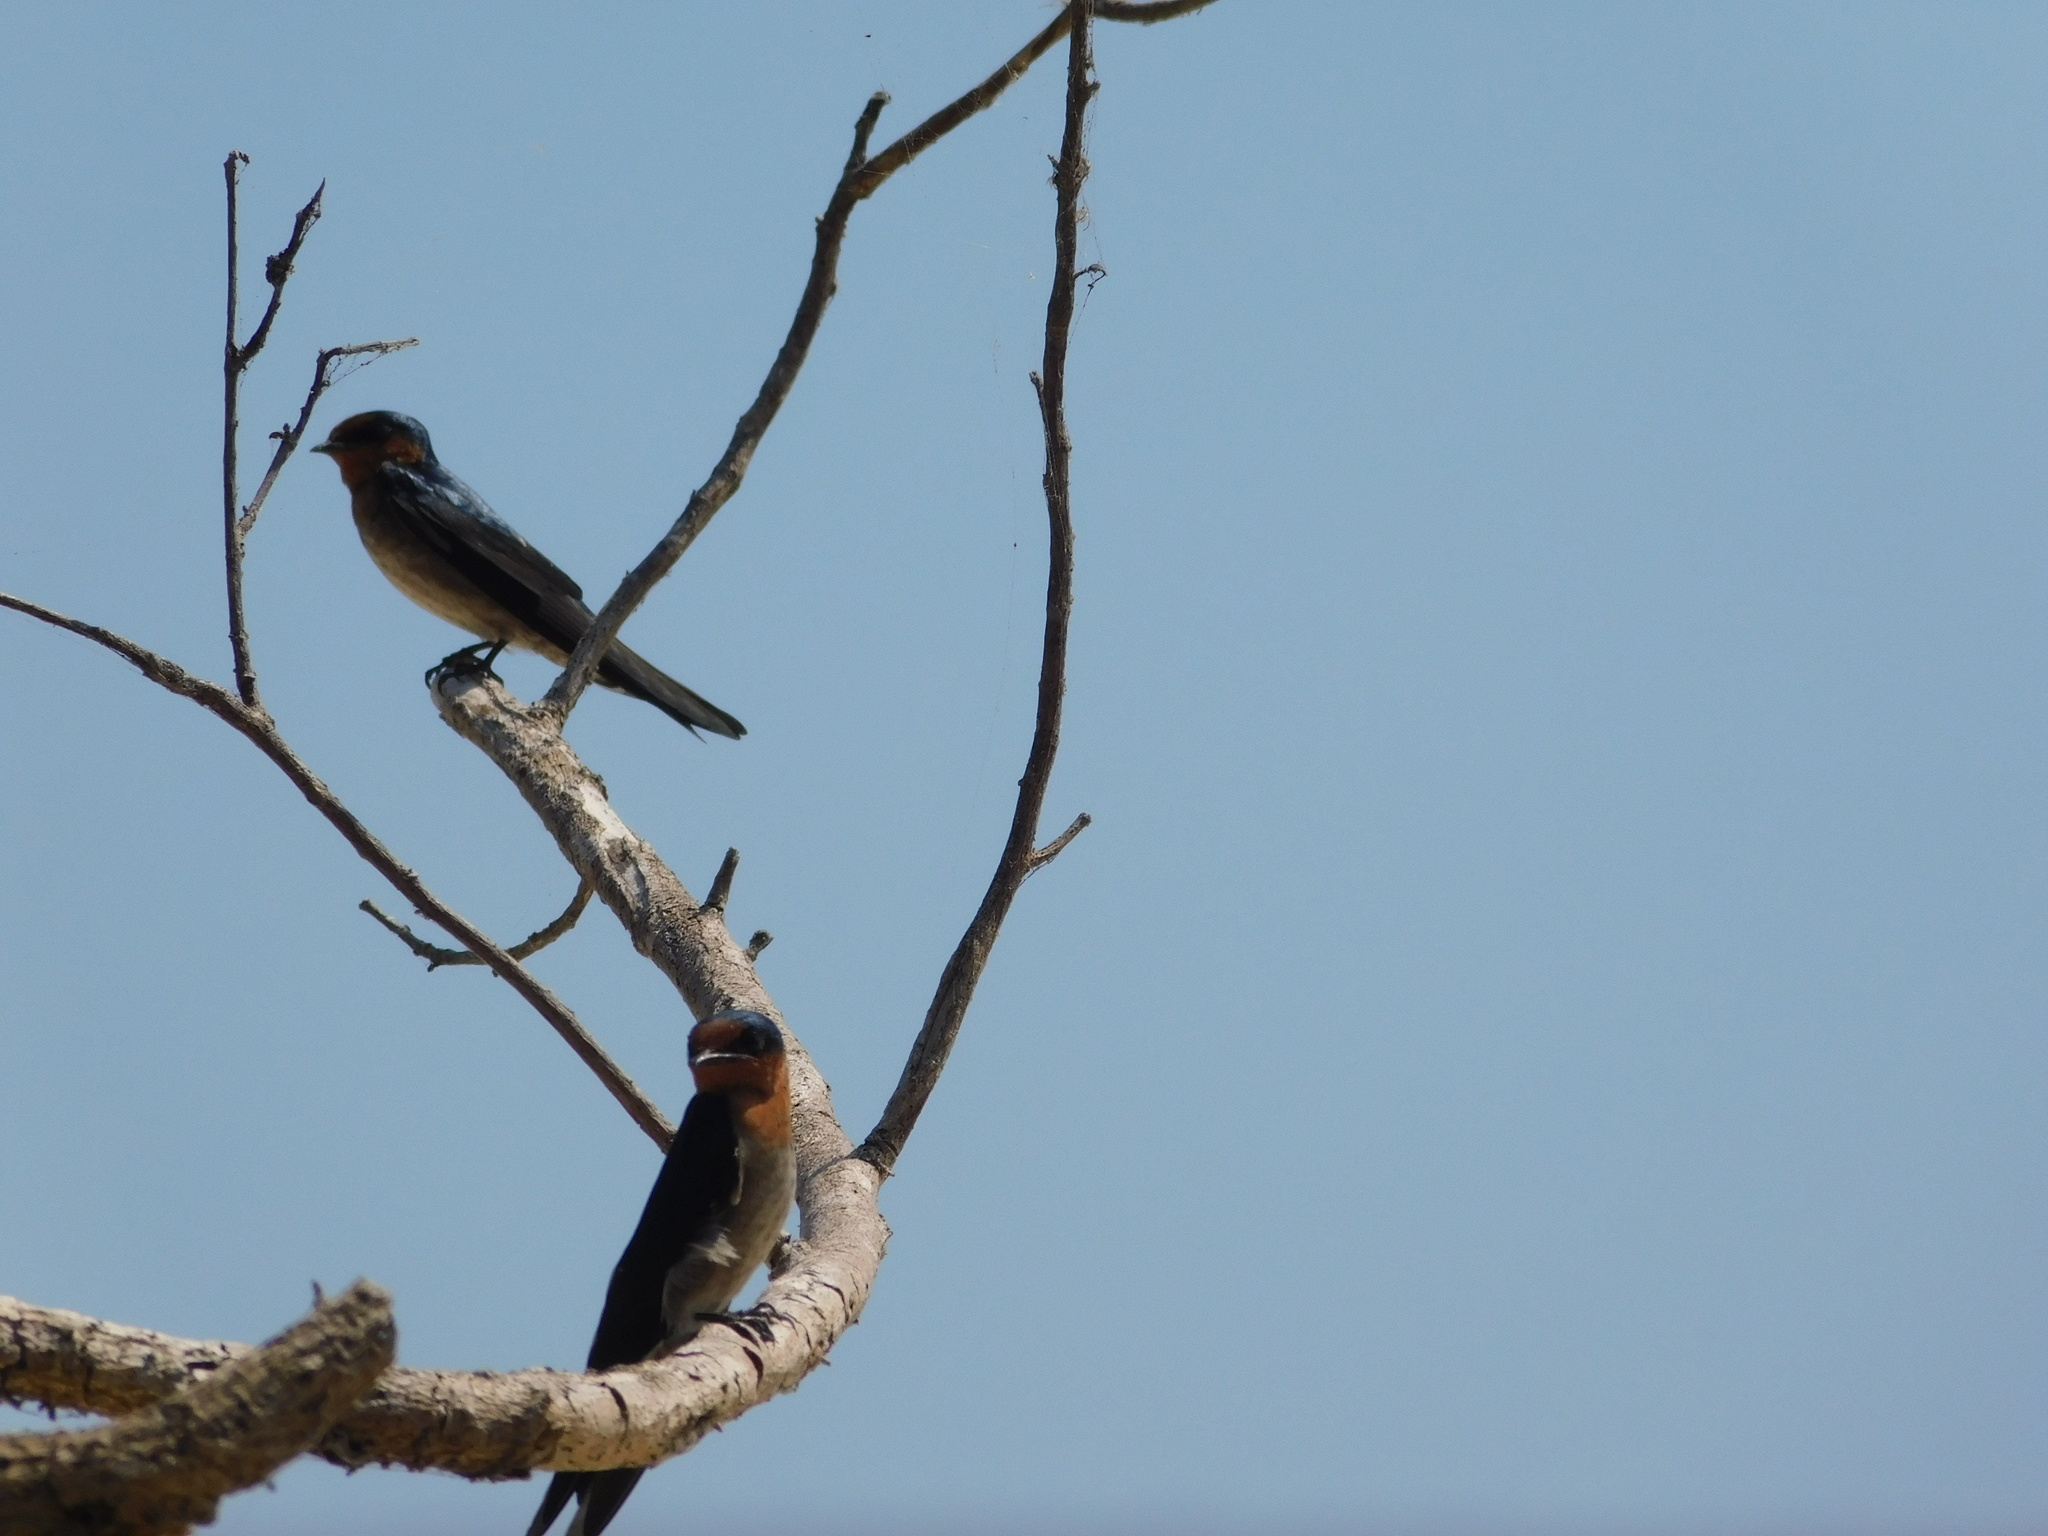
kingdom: Animalia
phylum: Chordata
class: Aves
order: Passeriformes
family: Hirundinidae
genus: Hirundo
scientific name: Hirundo tahitica
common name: Pacific swallow
